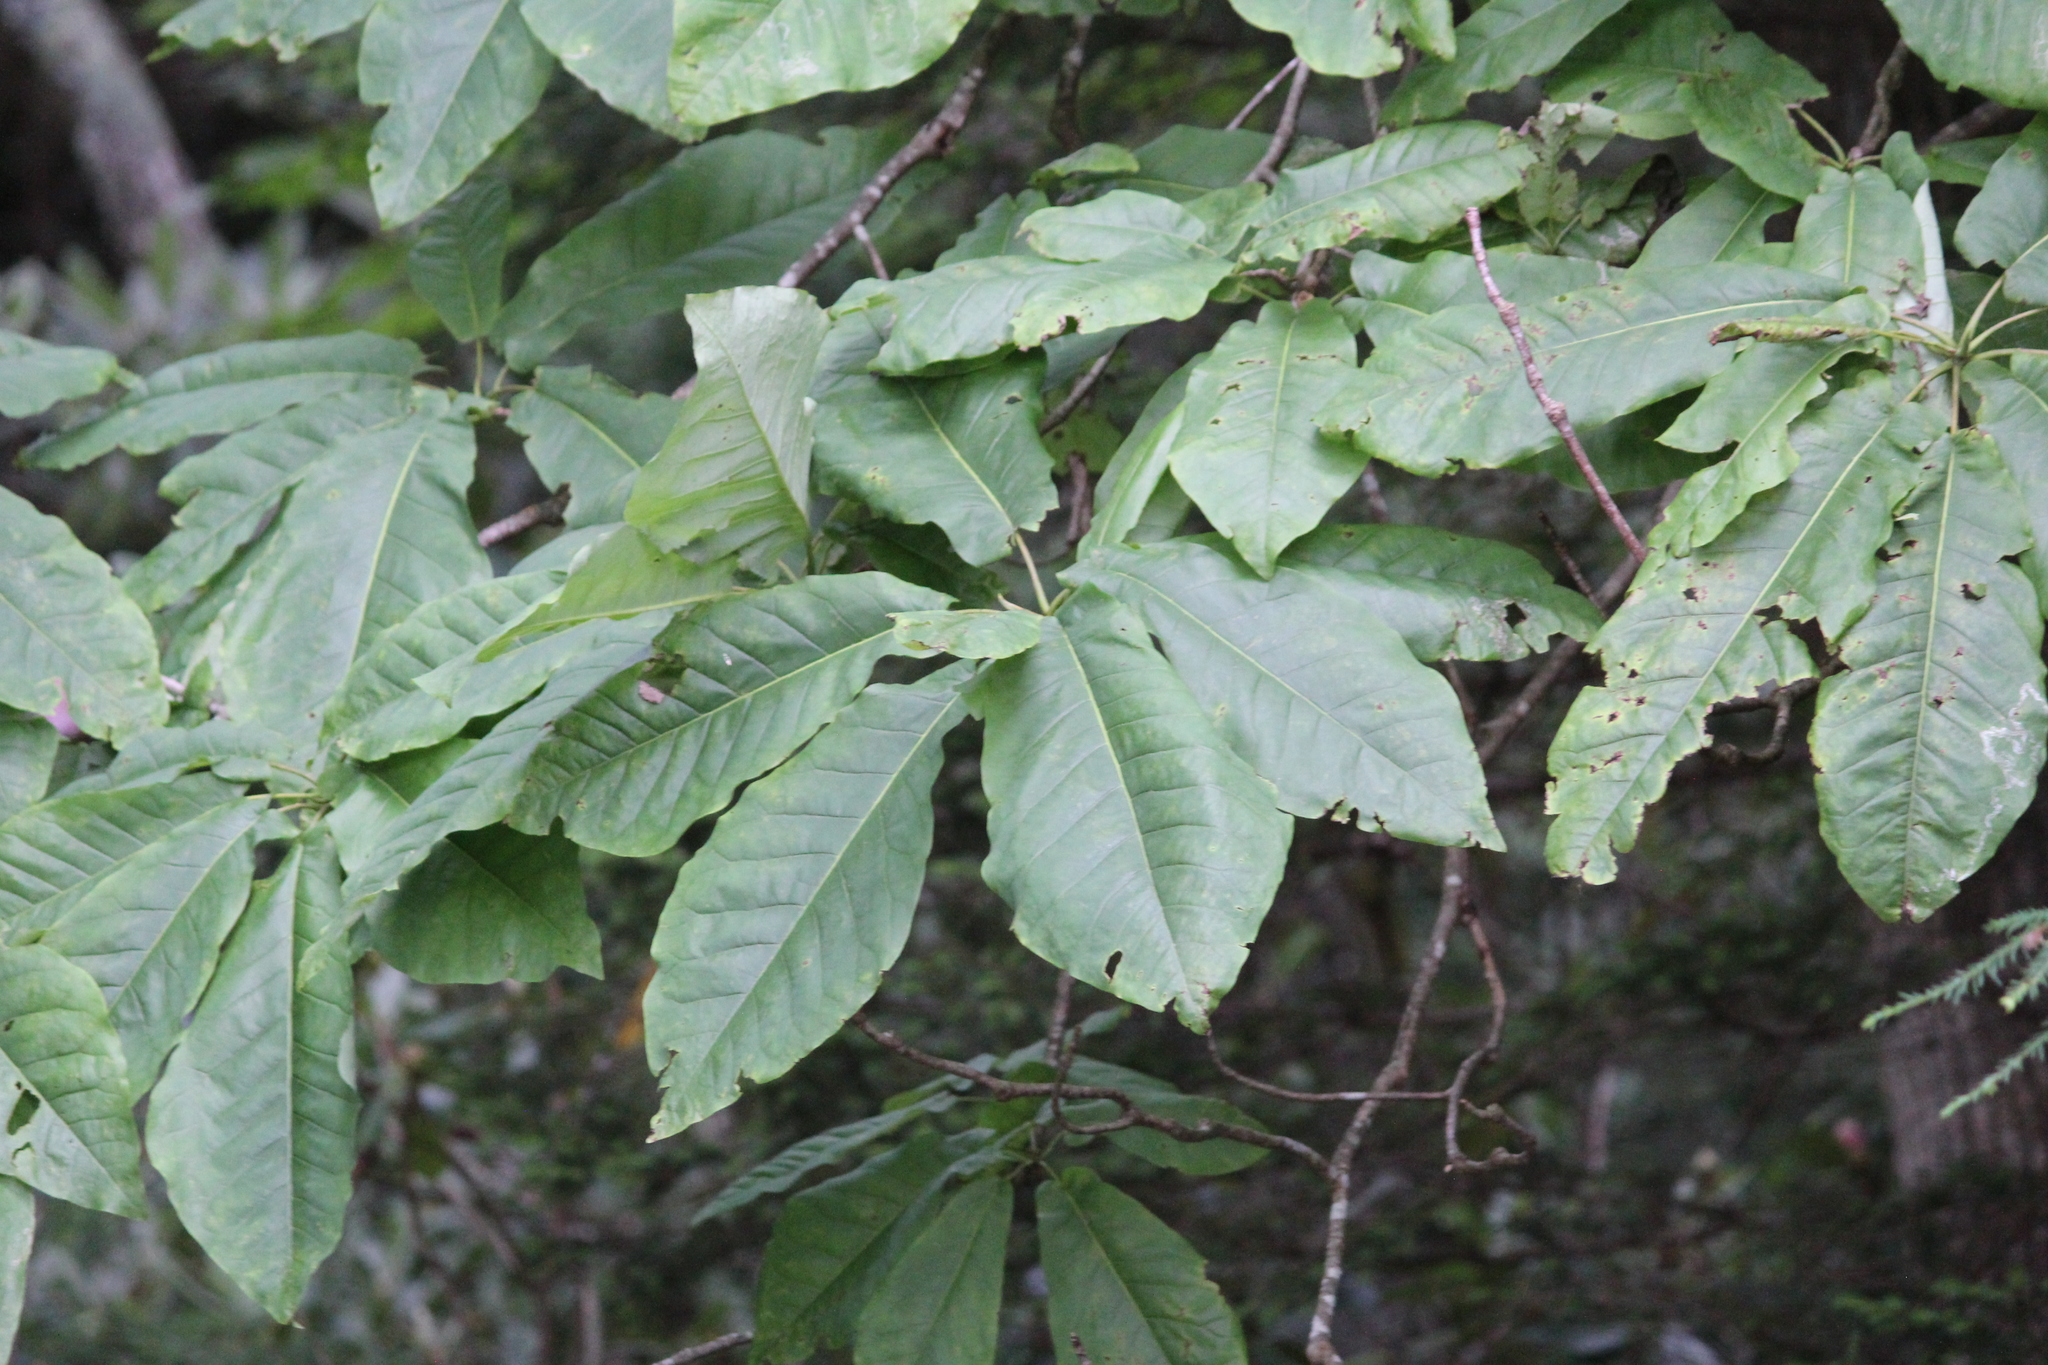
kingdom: Plantae
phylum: Tracheophyta
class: Magnoliopsida
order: Magnoliales
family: Magnoliaceae
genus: Magnolia
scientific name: Magnolia fraseri
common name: Fraser's magnolia
